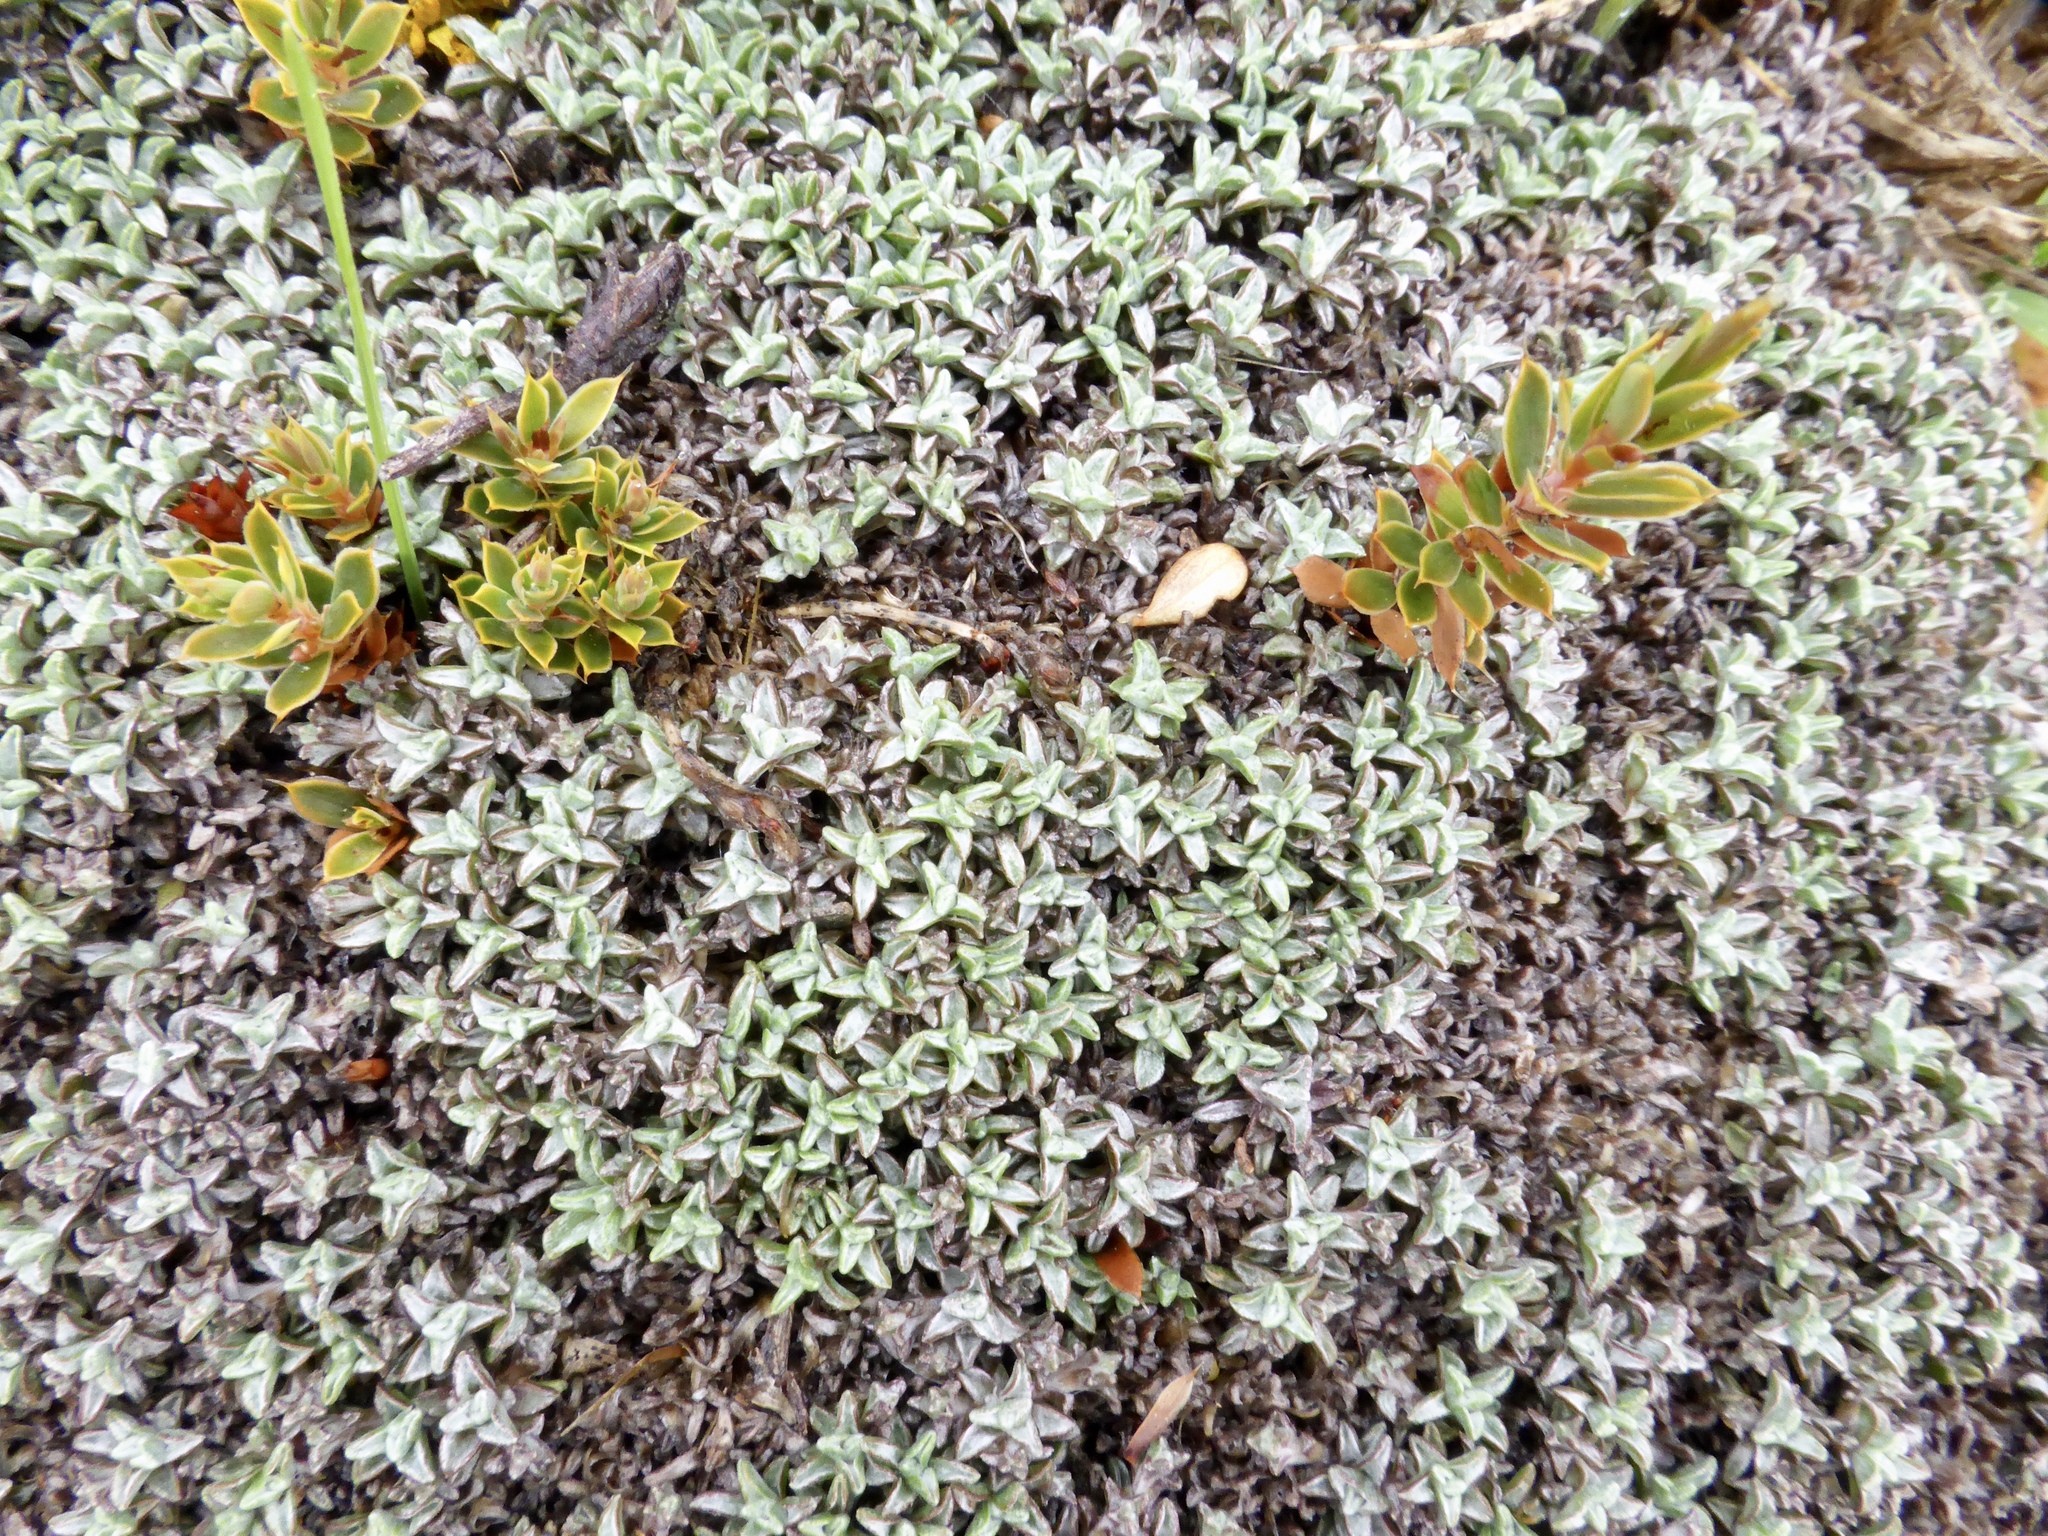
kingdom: Plantae
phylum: Tracheophyta
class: Magnoliopsida
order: Asterales
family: Asteraceae
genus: Raoulia
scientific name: Raoulia tenuicaulis
